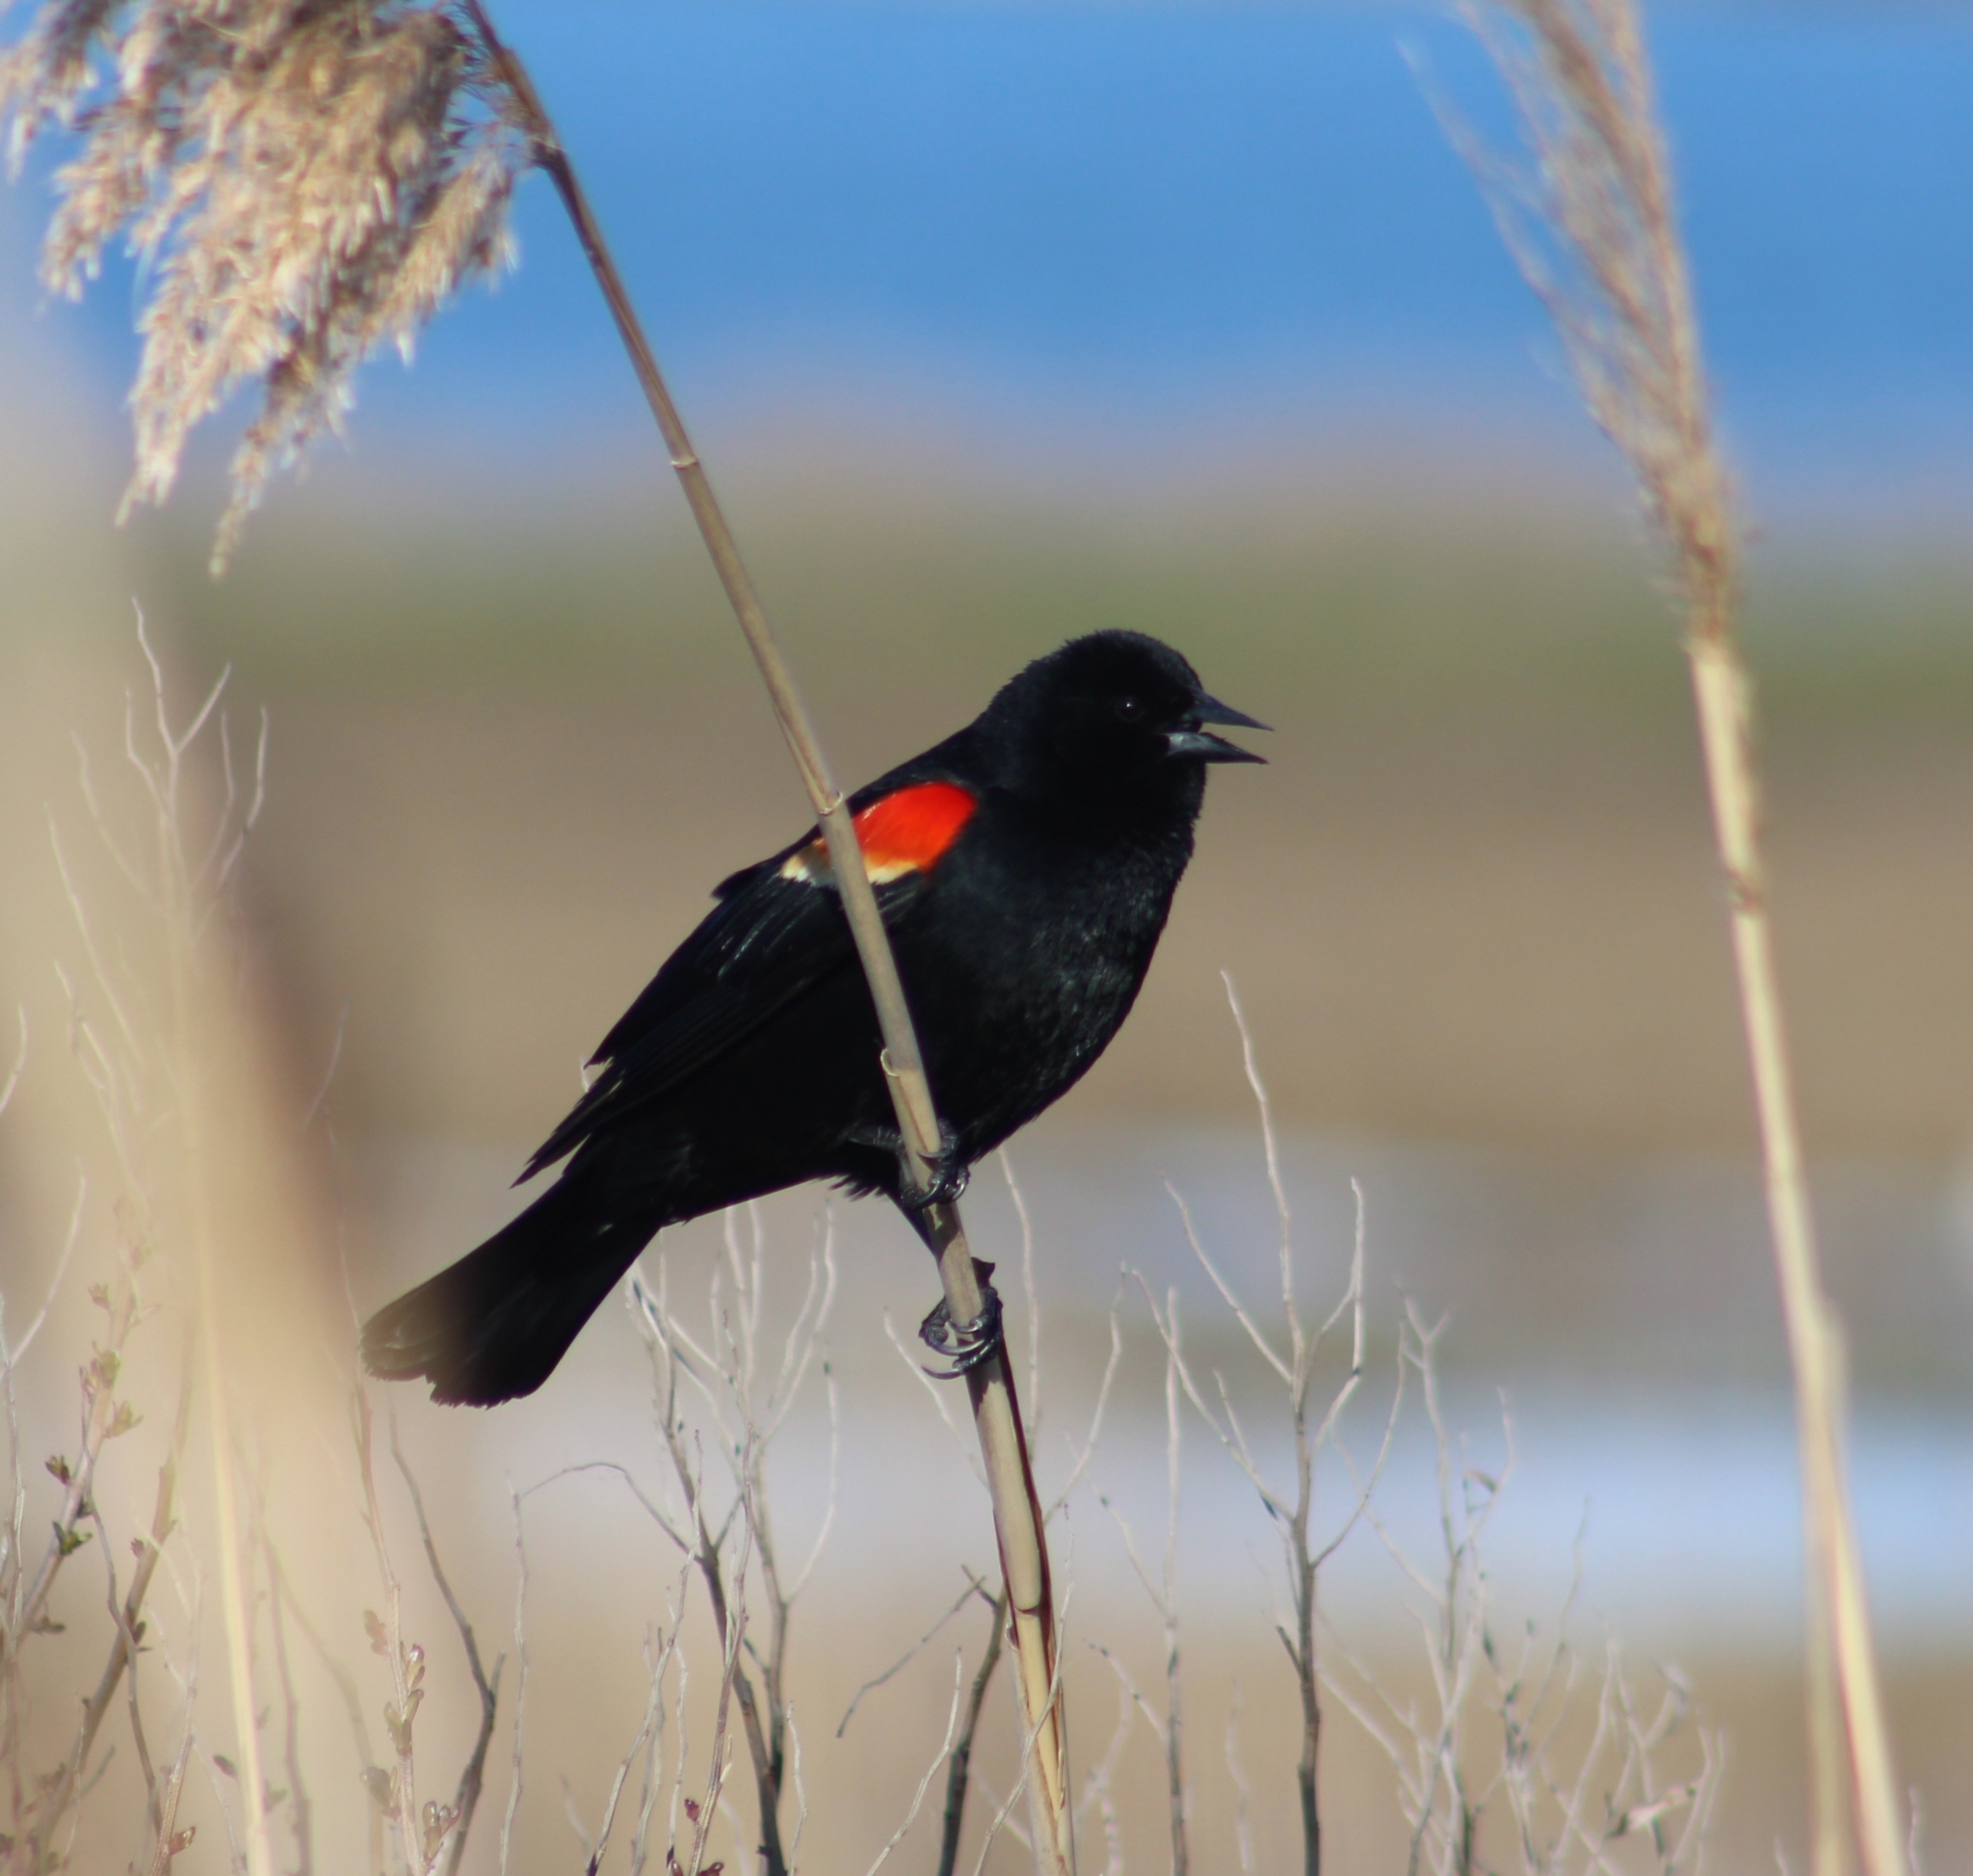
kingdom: Animalia
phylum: Chordata
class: Aves
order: Passeriformes
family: Icteridae
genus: Agelaius
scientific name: Agelaius phoeniceus
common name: Red-winged blackbird
